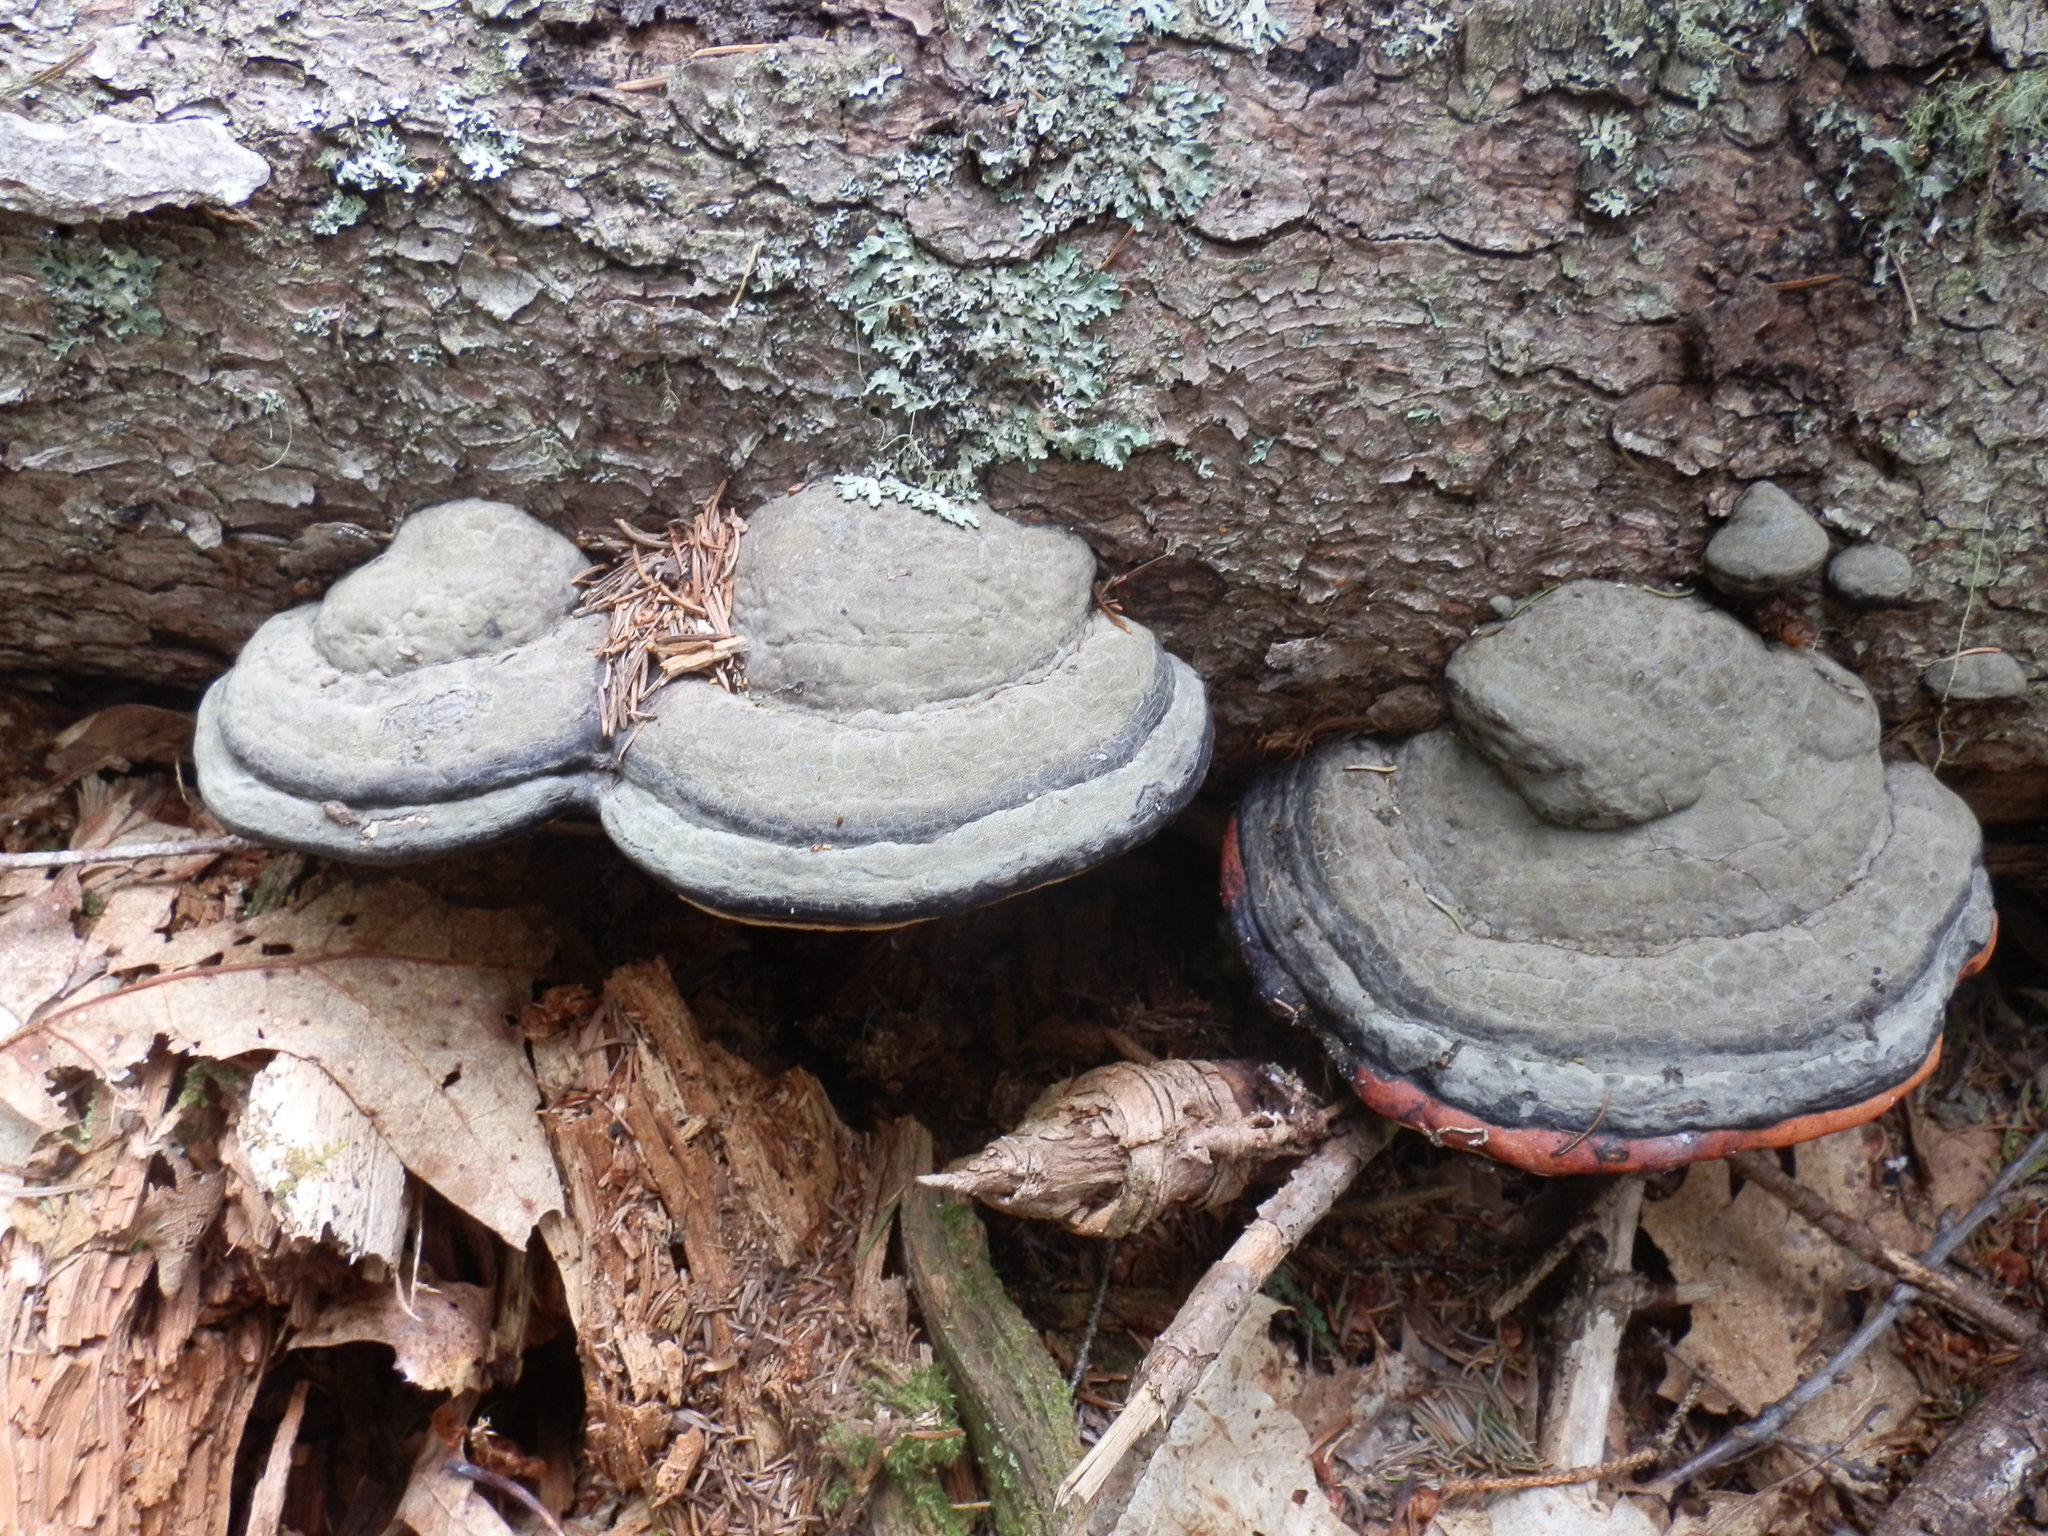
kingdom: Fungi
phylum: Basidiomycota
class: Agaricomycetes
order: Polyporales
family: Fomitopsidaceae
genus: Fomitopsis
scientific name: Fomitopsis mounceae
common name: Northern red belt
